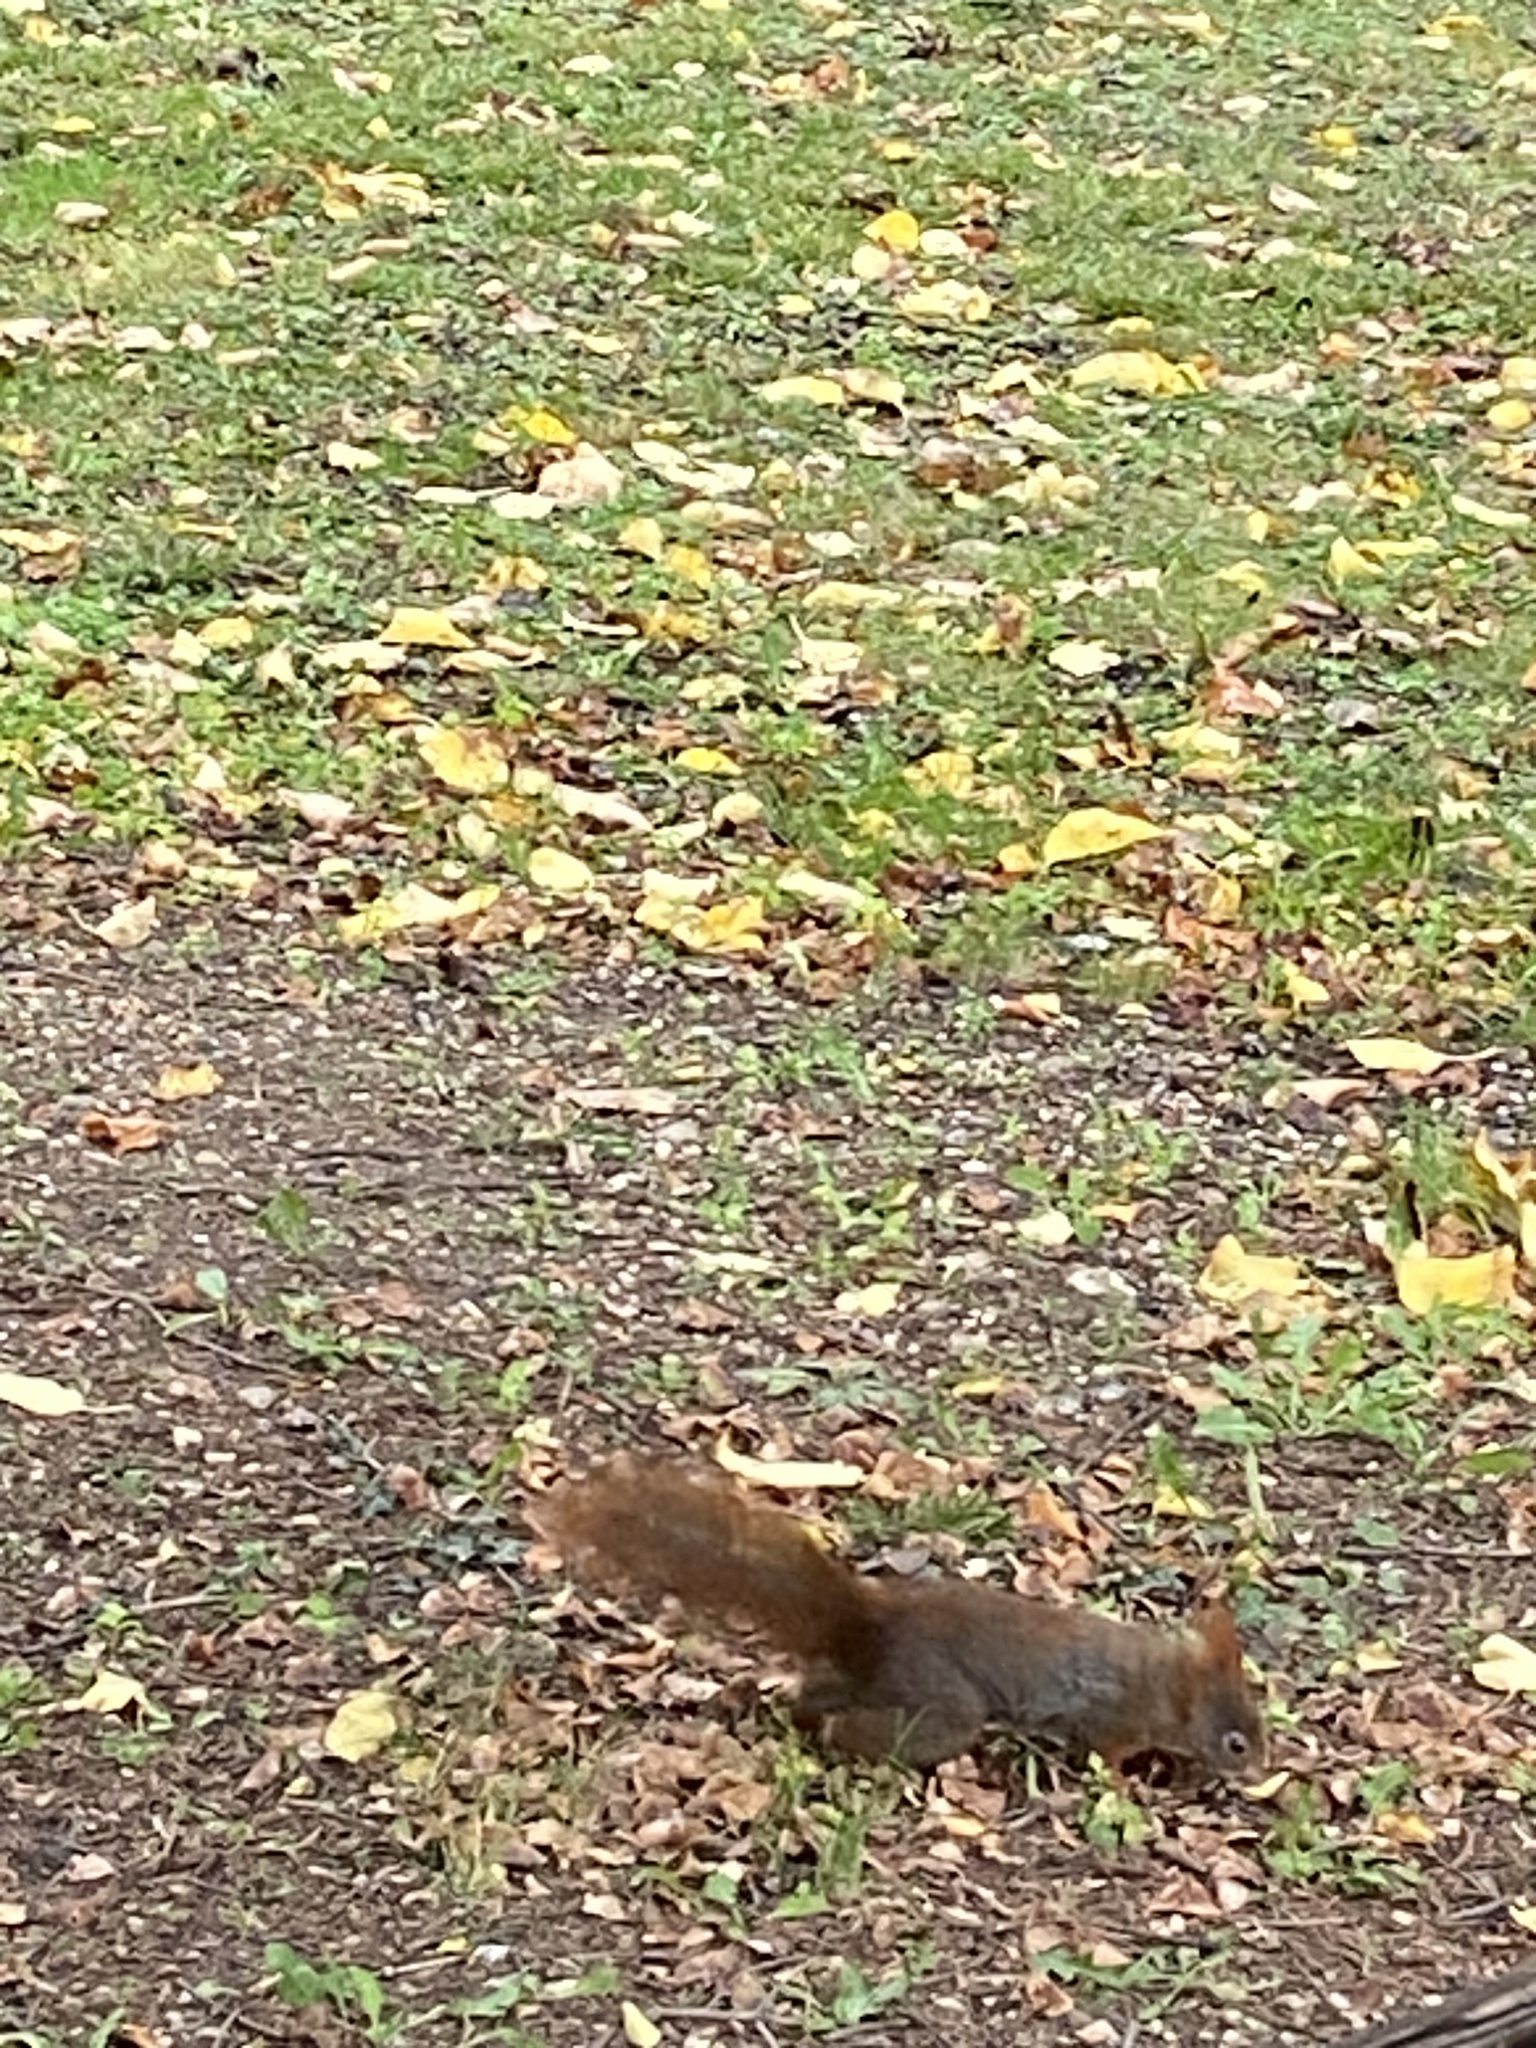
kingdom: Animalia
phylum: Chordata
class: Mammalia
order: Rodentia
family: Sciuridae
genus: Sciurus
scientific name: Sciurus vulgaris
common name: Eurasian red squirrel
